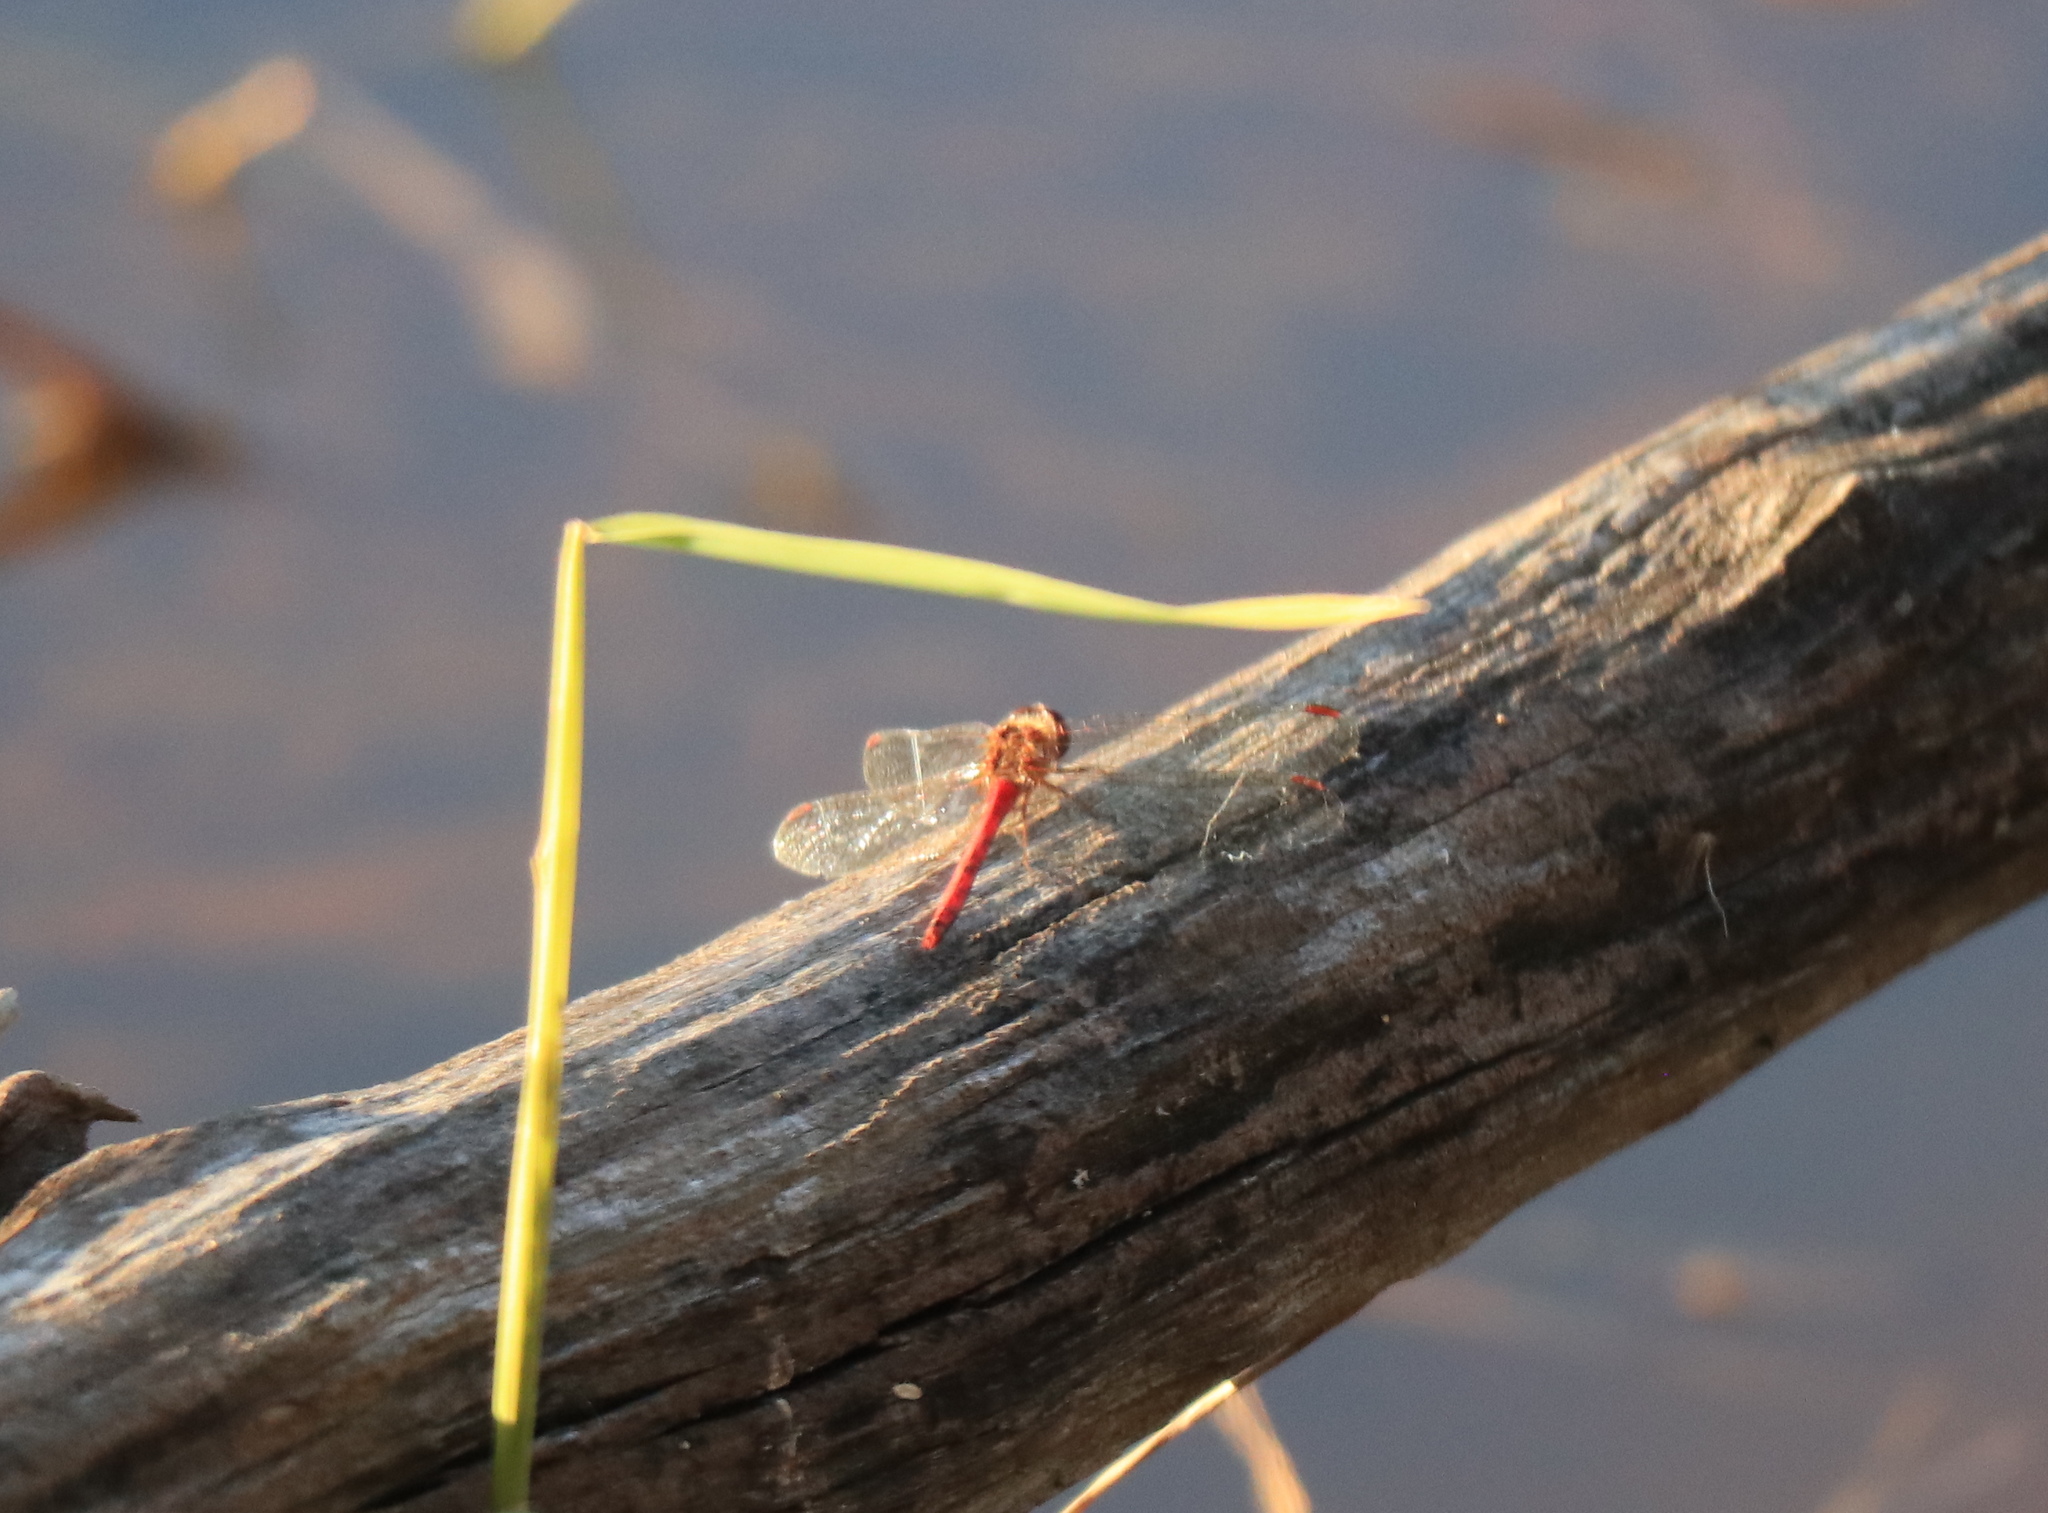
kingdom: Animalia
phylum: Arthropoda
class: Insecta
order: Odonata
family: Libellulidae
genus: Sympetrum
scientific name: Sympetrum vicinum
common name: Autumn meadowhawk
